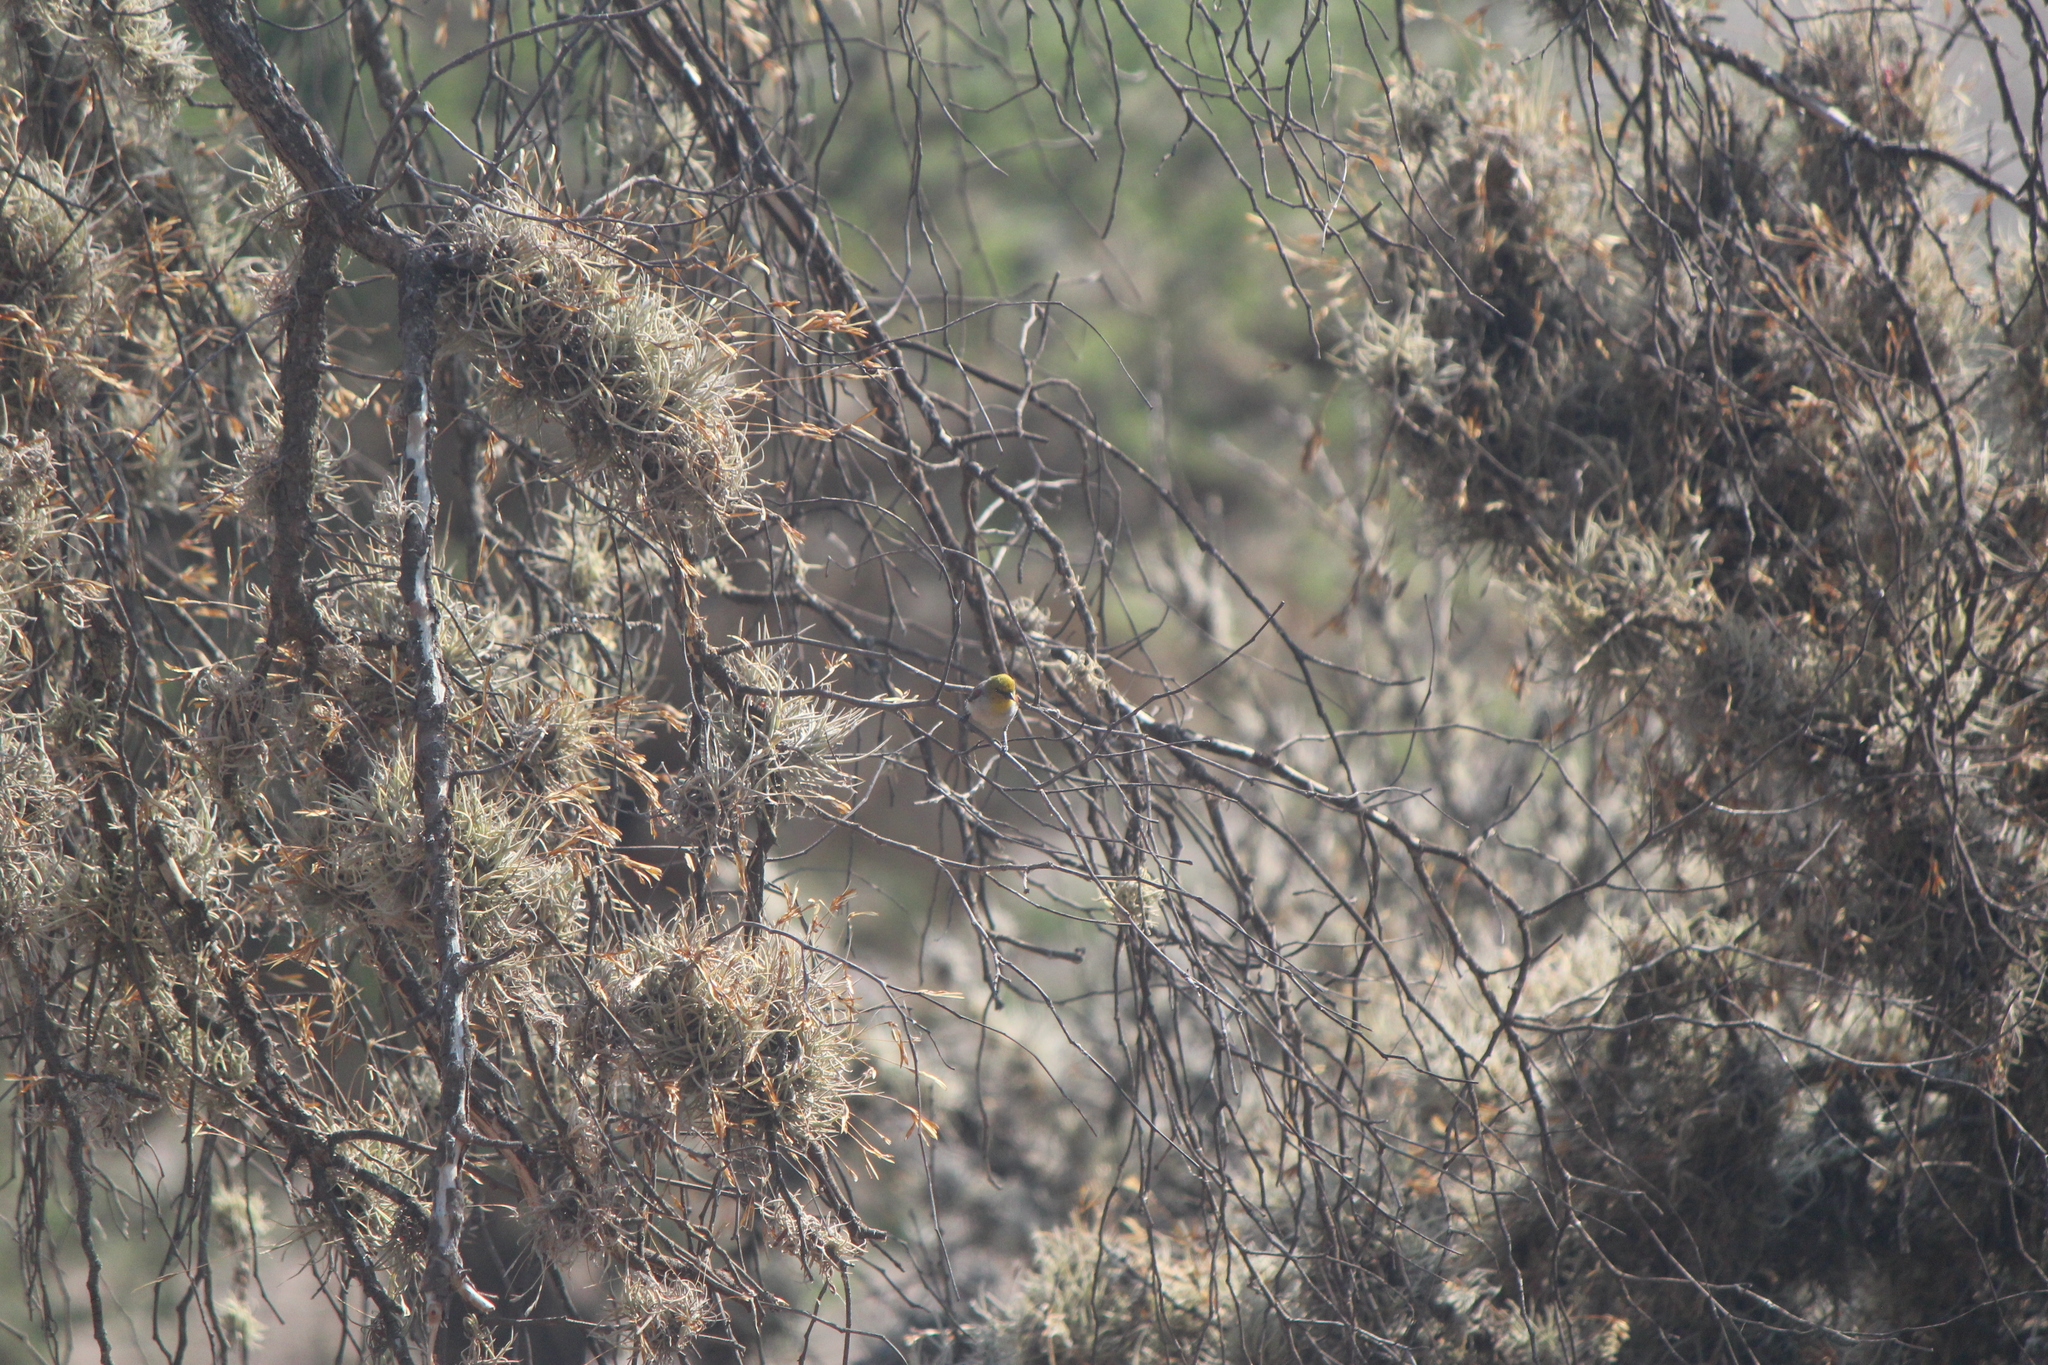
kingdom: Animalia
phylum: Chordata
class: Aves
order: Passeriformes
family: Remizidae
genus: Auriparus
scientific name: Auriparus flaviceps
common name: Verdin
